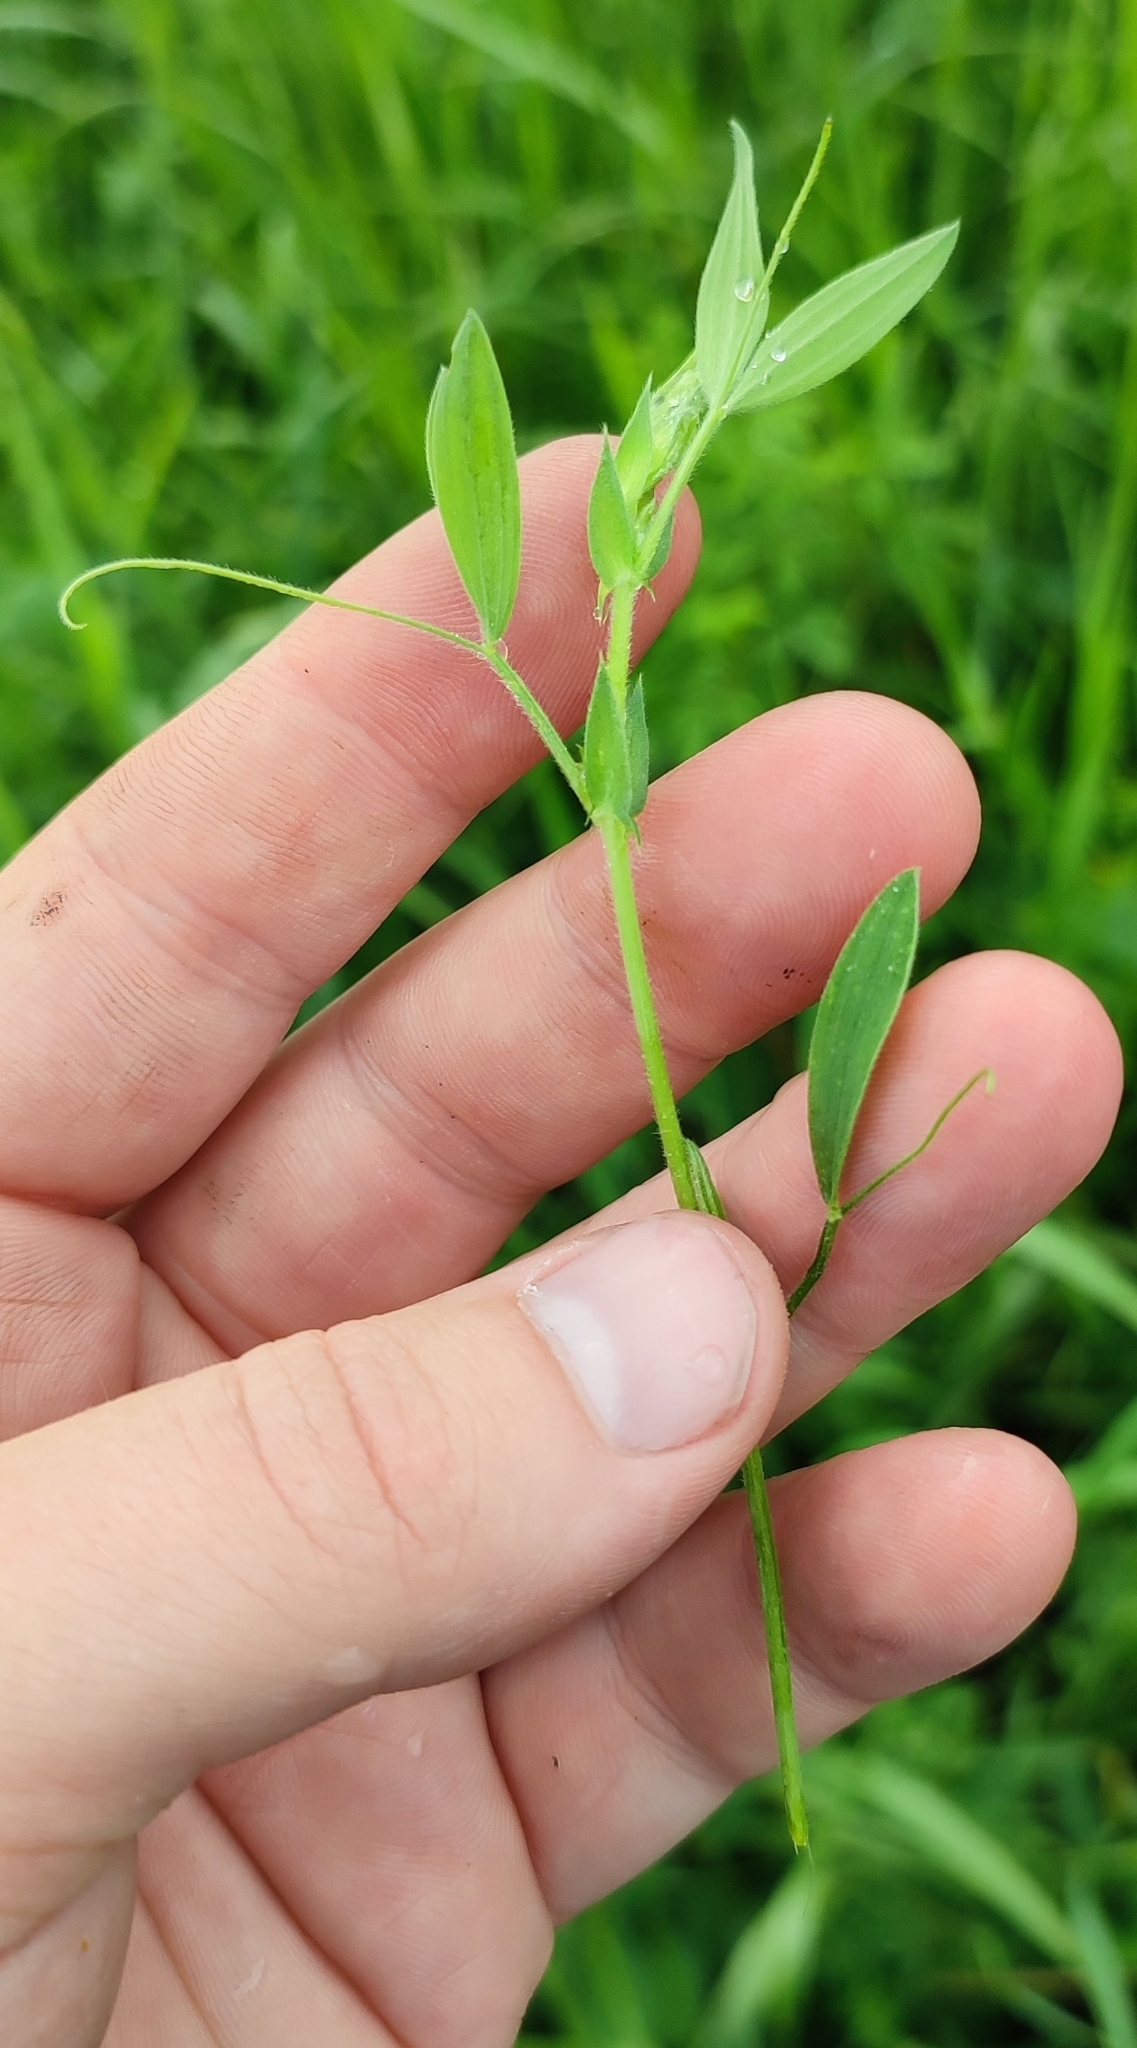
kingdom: Plantae
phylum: Tracheophyta
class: Magnoliopsida
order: Fabales
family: Fabaceae
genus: Lathyrus
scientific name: Lathyrus pratensis
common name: Meadow vetchling
